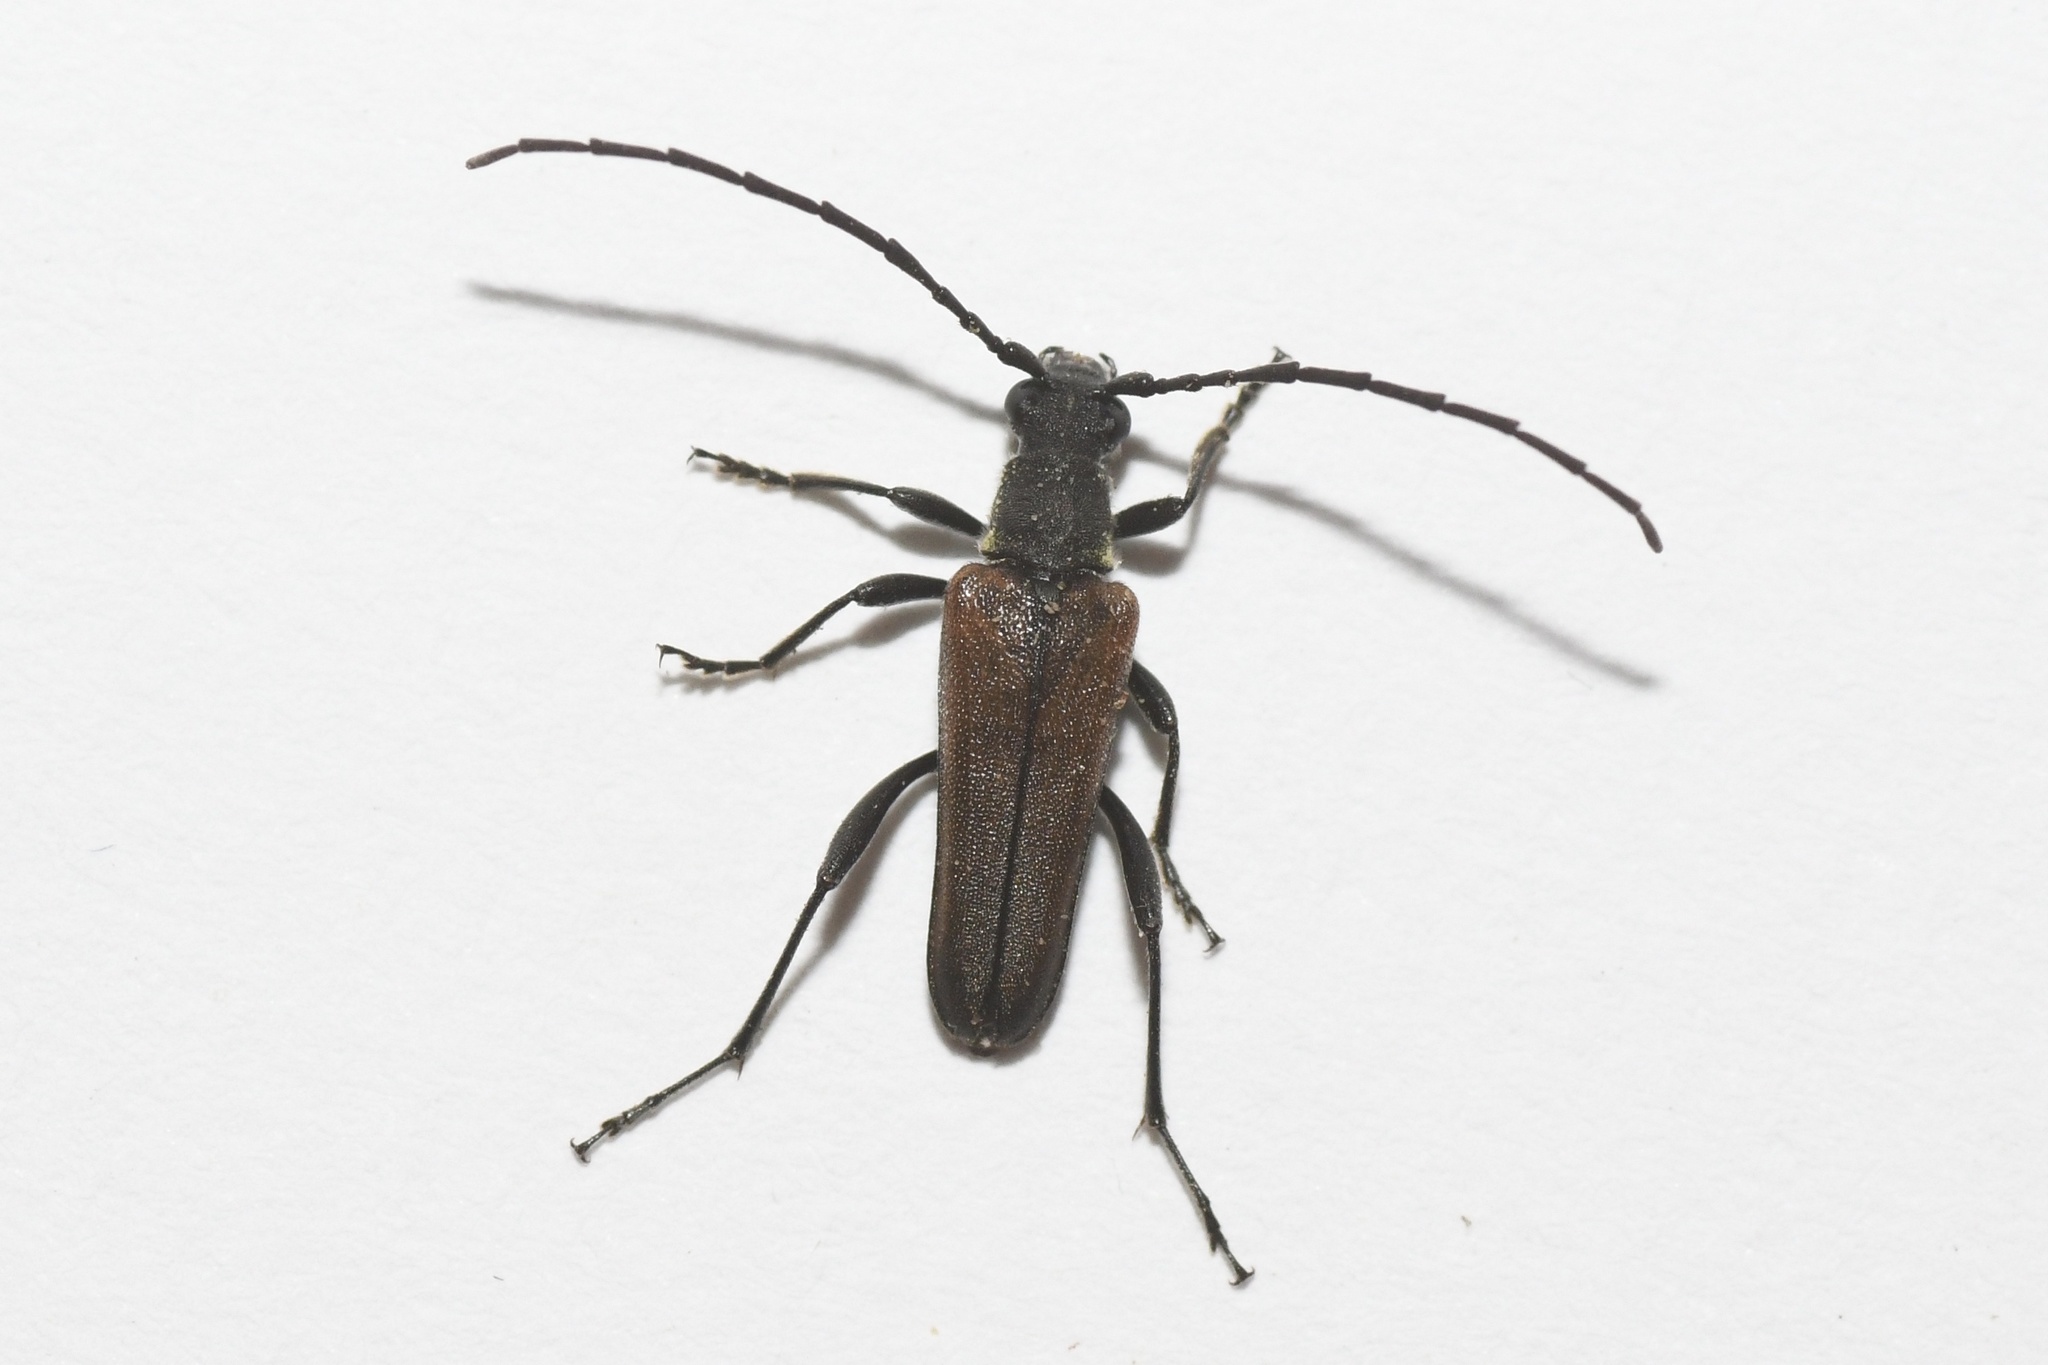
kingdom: Animalia
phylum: Arthropoda
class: Insecta
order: Coleoptera
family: Cerambycidae
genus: Trachysida
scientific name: Trachysida mutabilis
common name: Changeable flower longhorn
